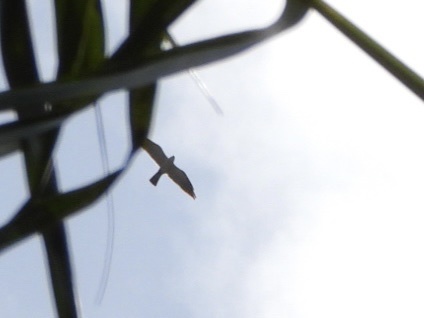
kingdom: Animalia
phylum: Chordata
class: Aves
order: Accipitriformes
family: Accipitridae
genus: Ictinia
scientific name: Ictinia mississippiensis
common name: Mississippi kite
